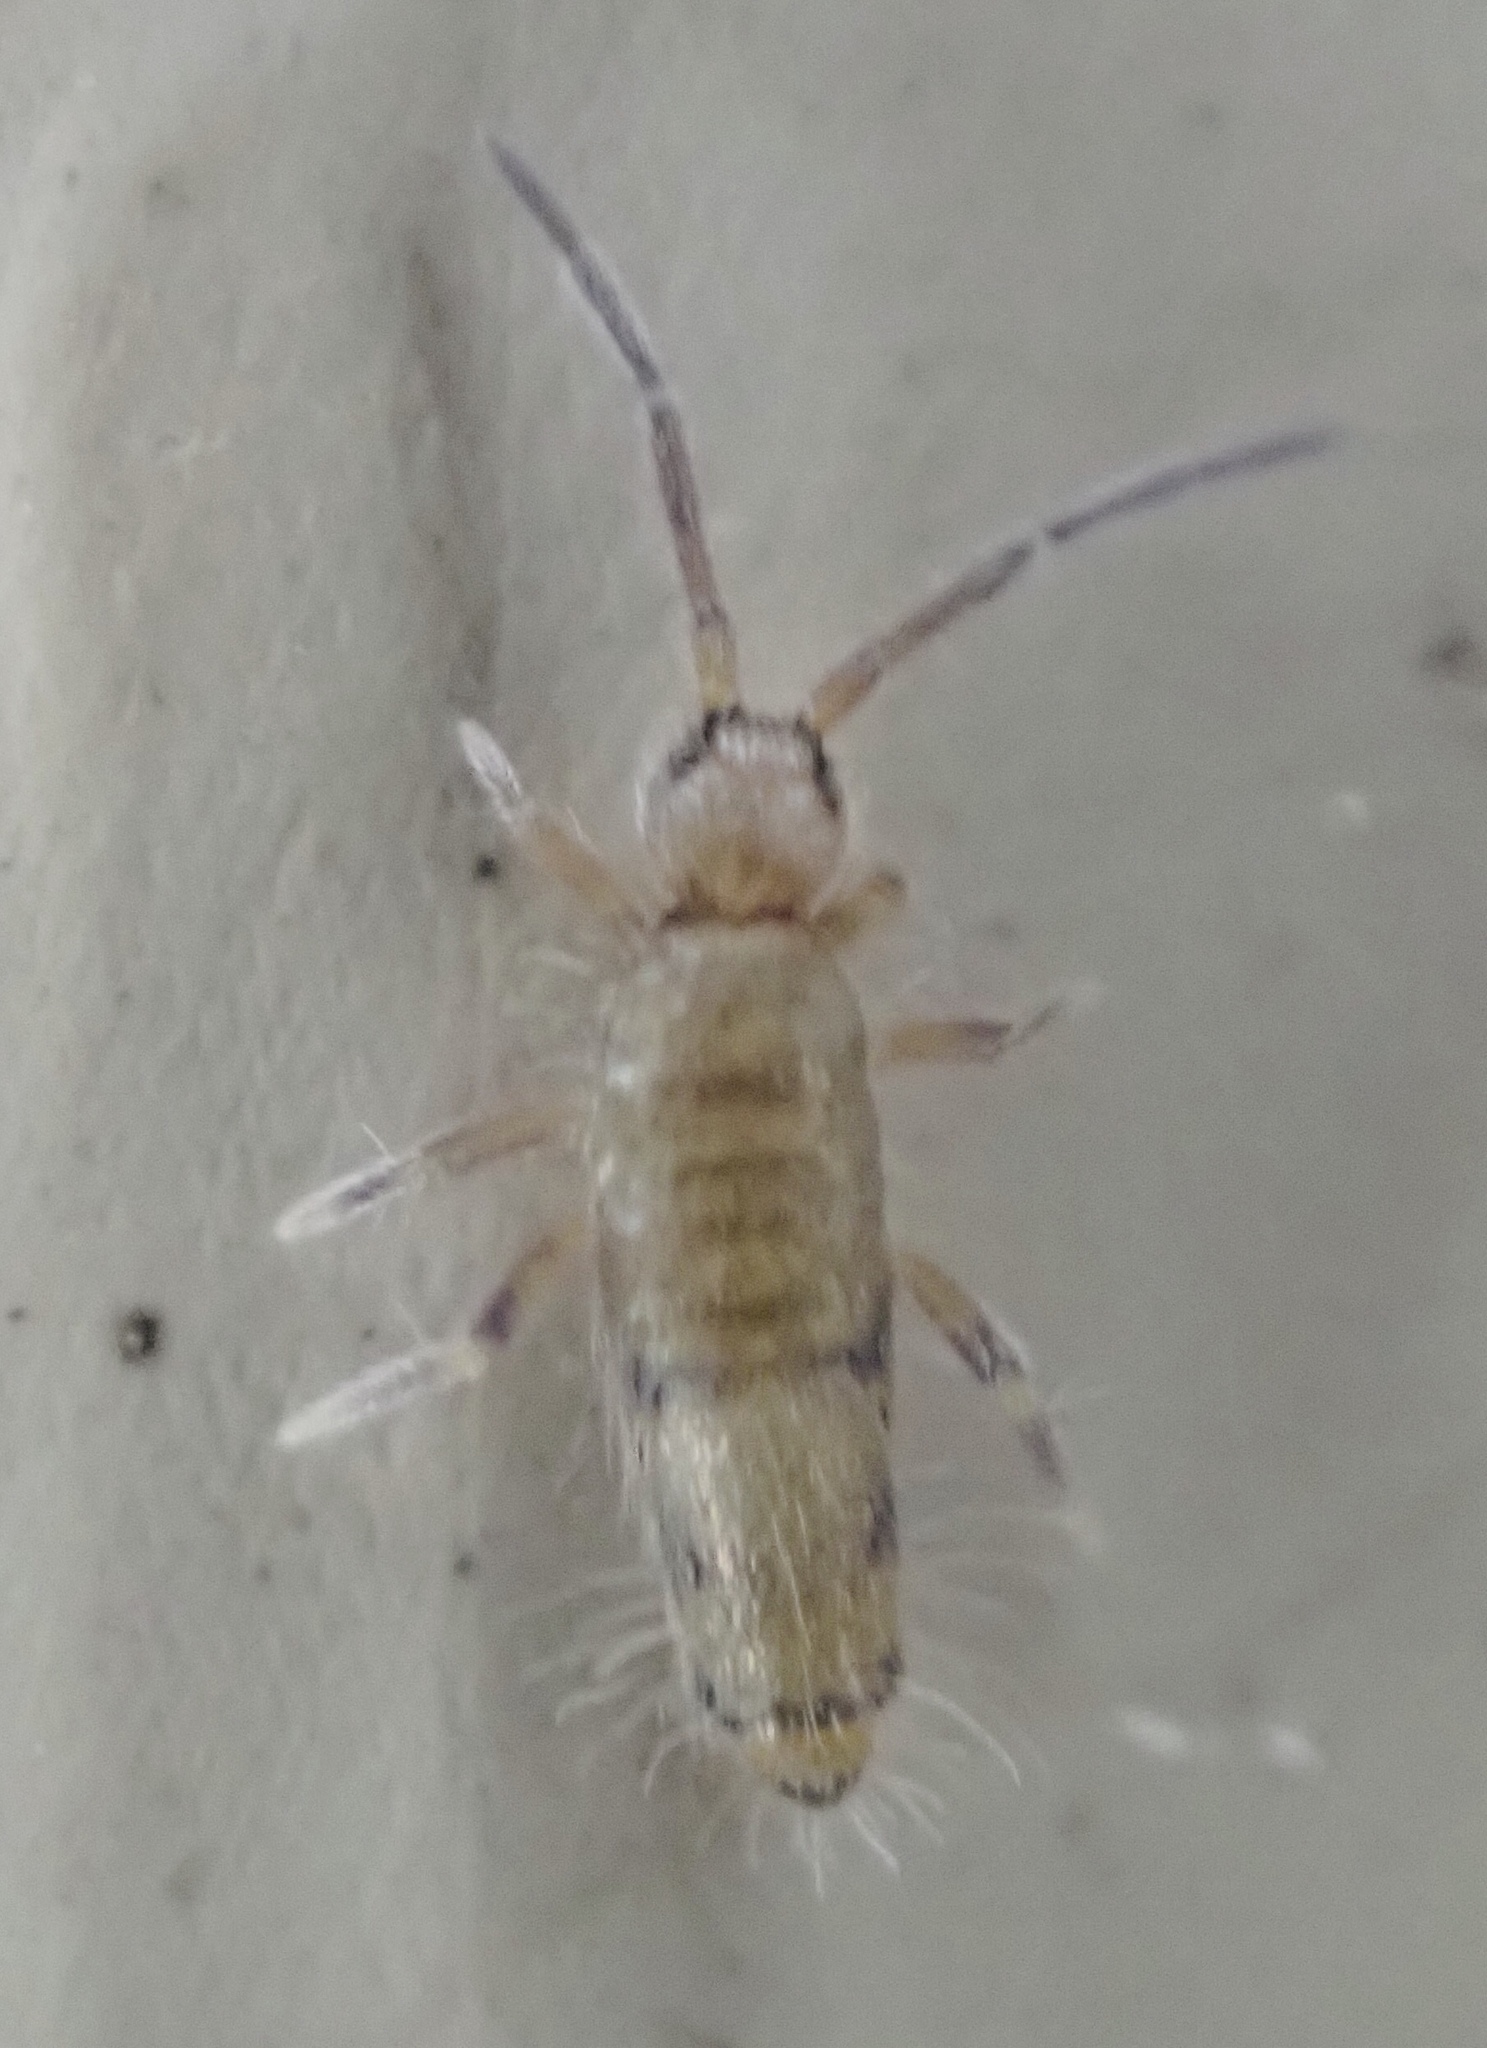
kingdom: Animalia
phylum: Arthropoda
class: Collembola
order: Entomobryomorpha
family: Entomobryidae
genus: Willowsia
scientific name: Willowsia nigromaculata
